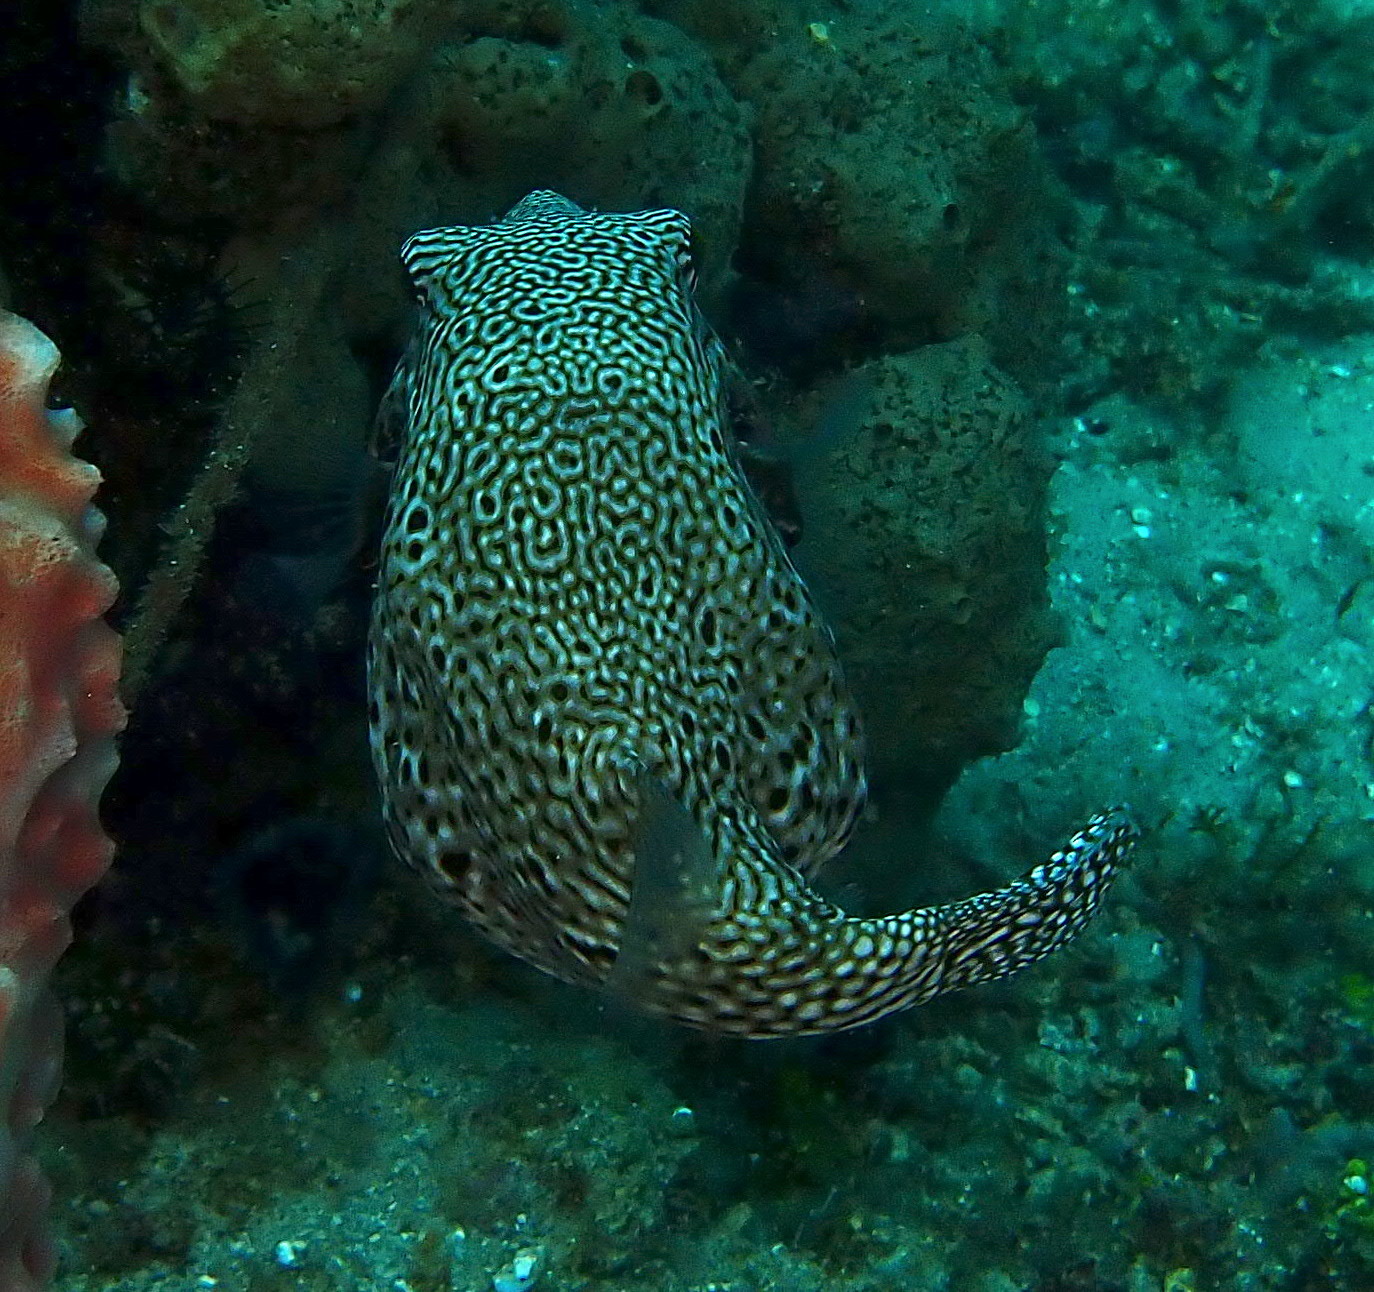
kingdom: Animalia
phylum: Chordata
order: Tetraodontiformes
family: Tetraodontidae
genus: Arothron
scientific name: Arothron mappa
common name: Map blaasop
